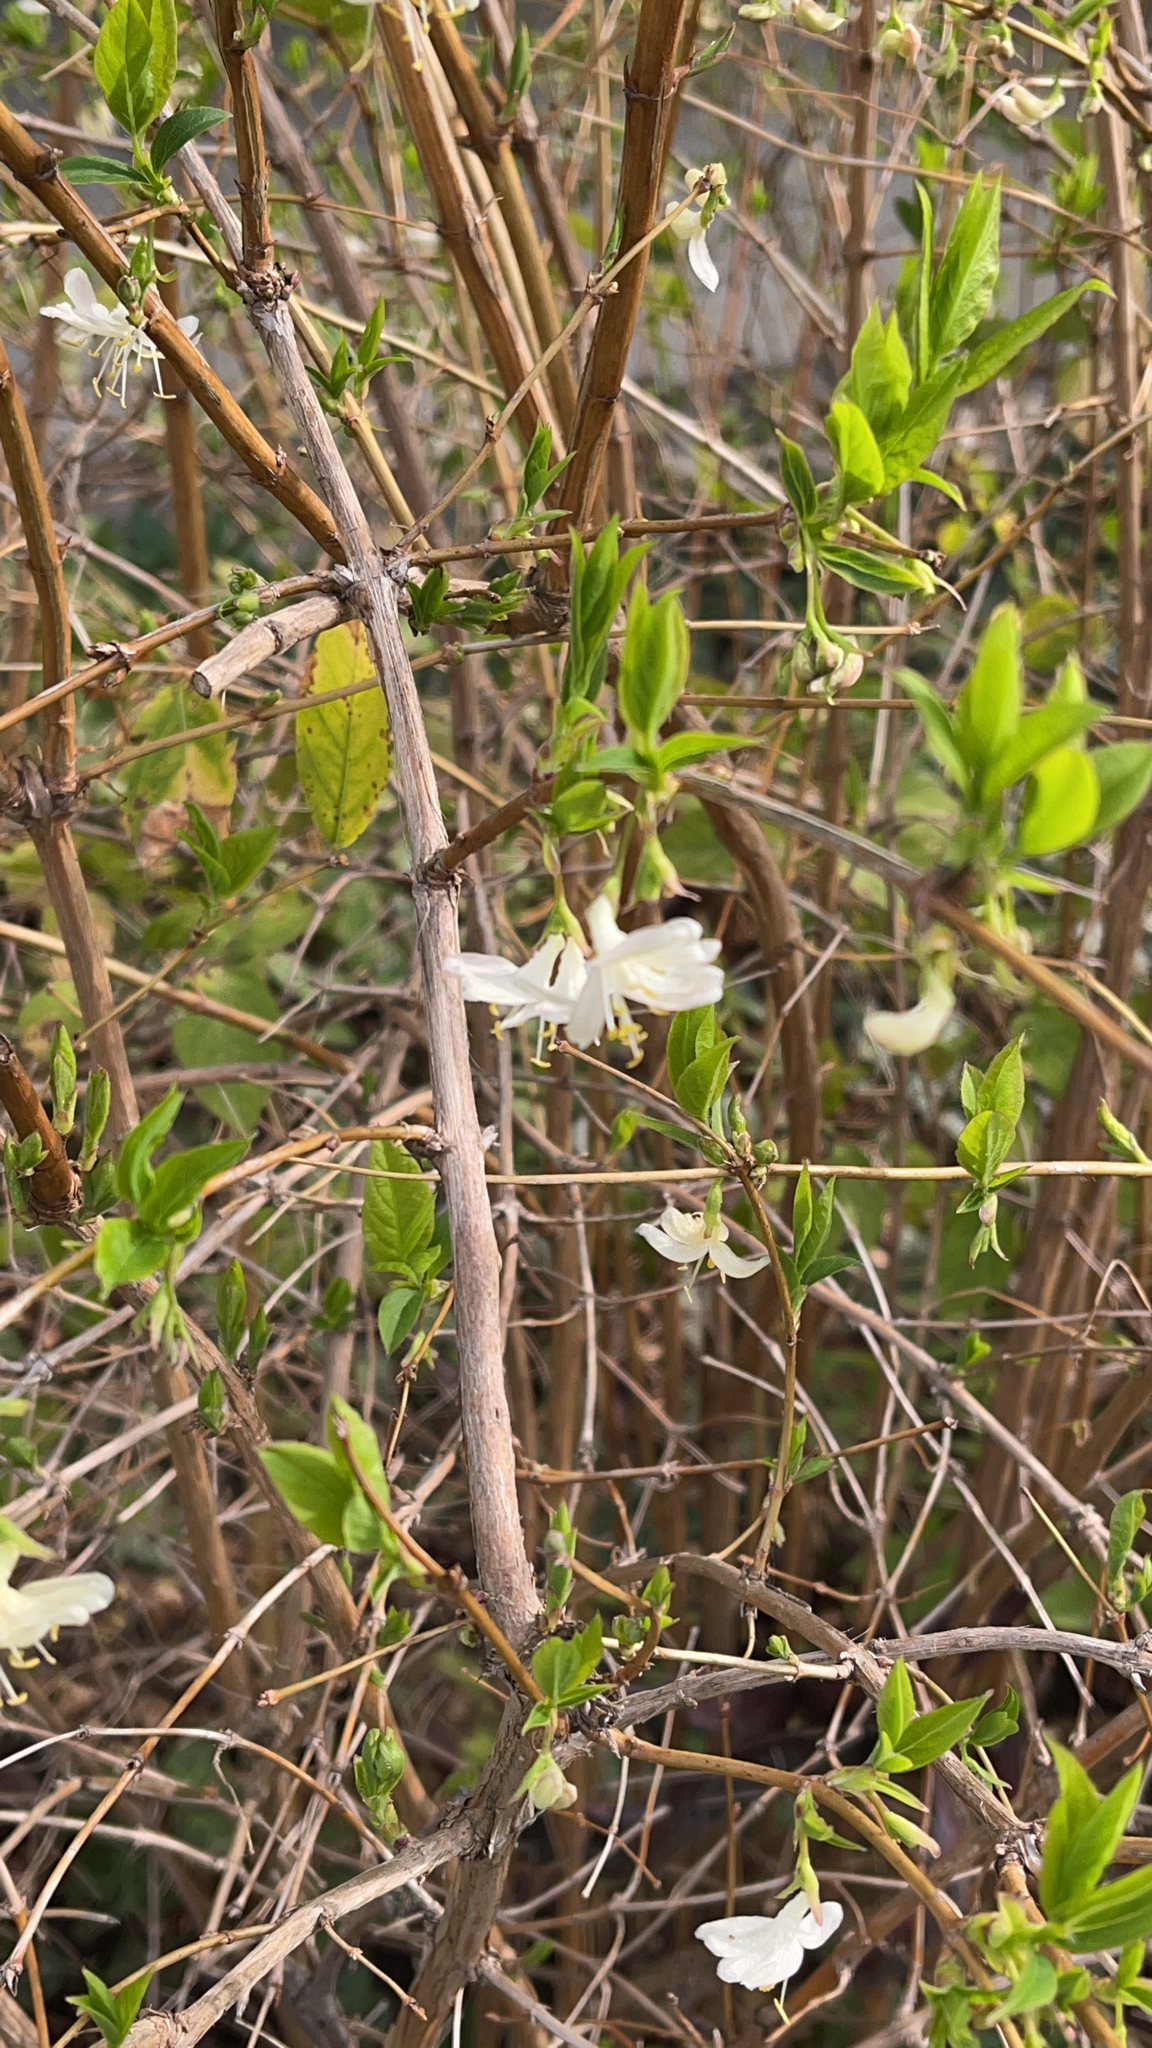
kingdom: Plantae
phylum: Tracheophyta
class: Magnoliopsida
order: Dipsacales
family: Caprifoliaceae
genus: Lonicera
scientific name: Lonicera fragrantissima
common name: Fragrant honeysuckle
